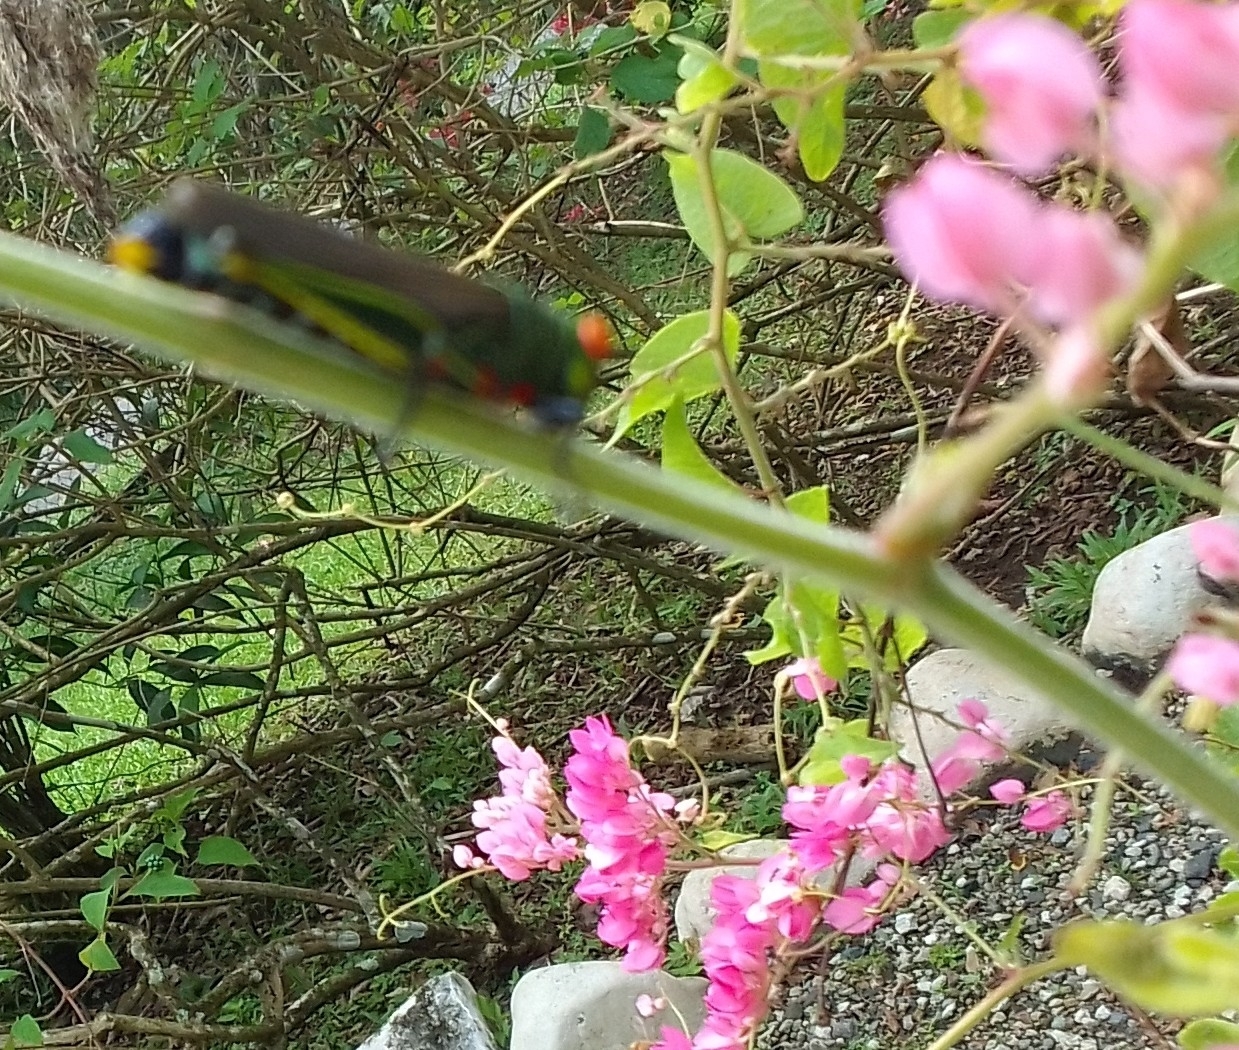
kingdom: Animalia
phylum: Arthropoda
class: Insecta
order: Orthoptera
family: Acrididae
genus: Coscineuta
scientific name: Coscineuta coxalis
